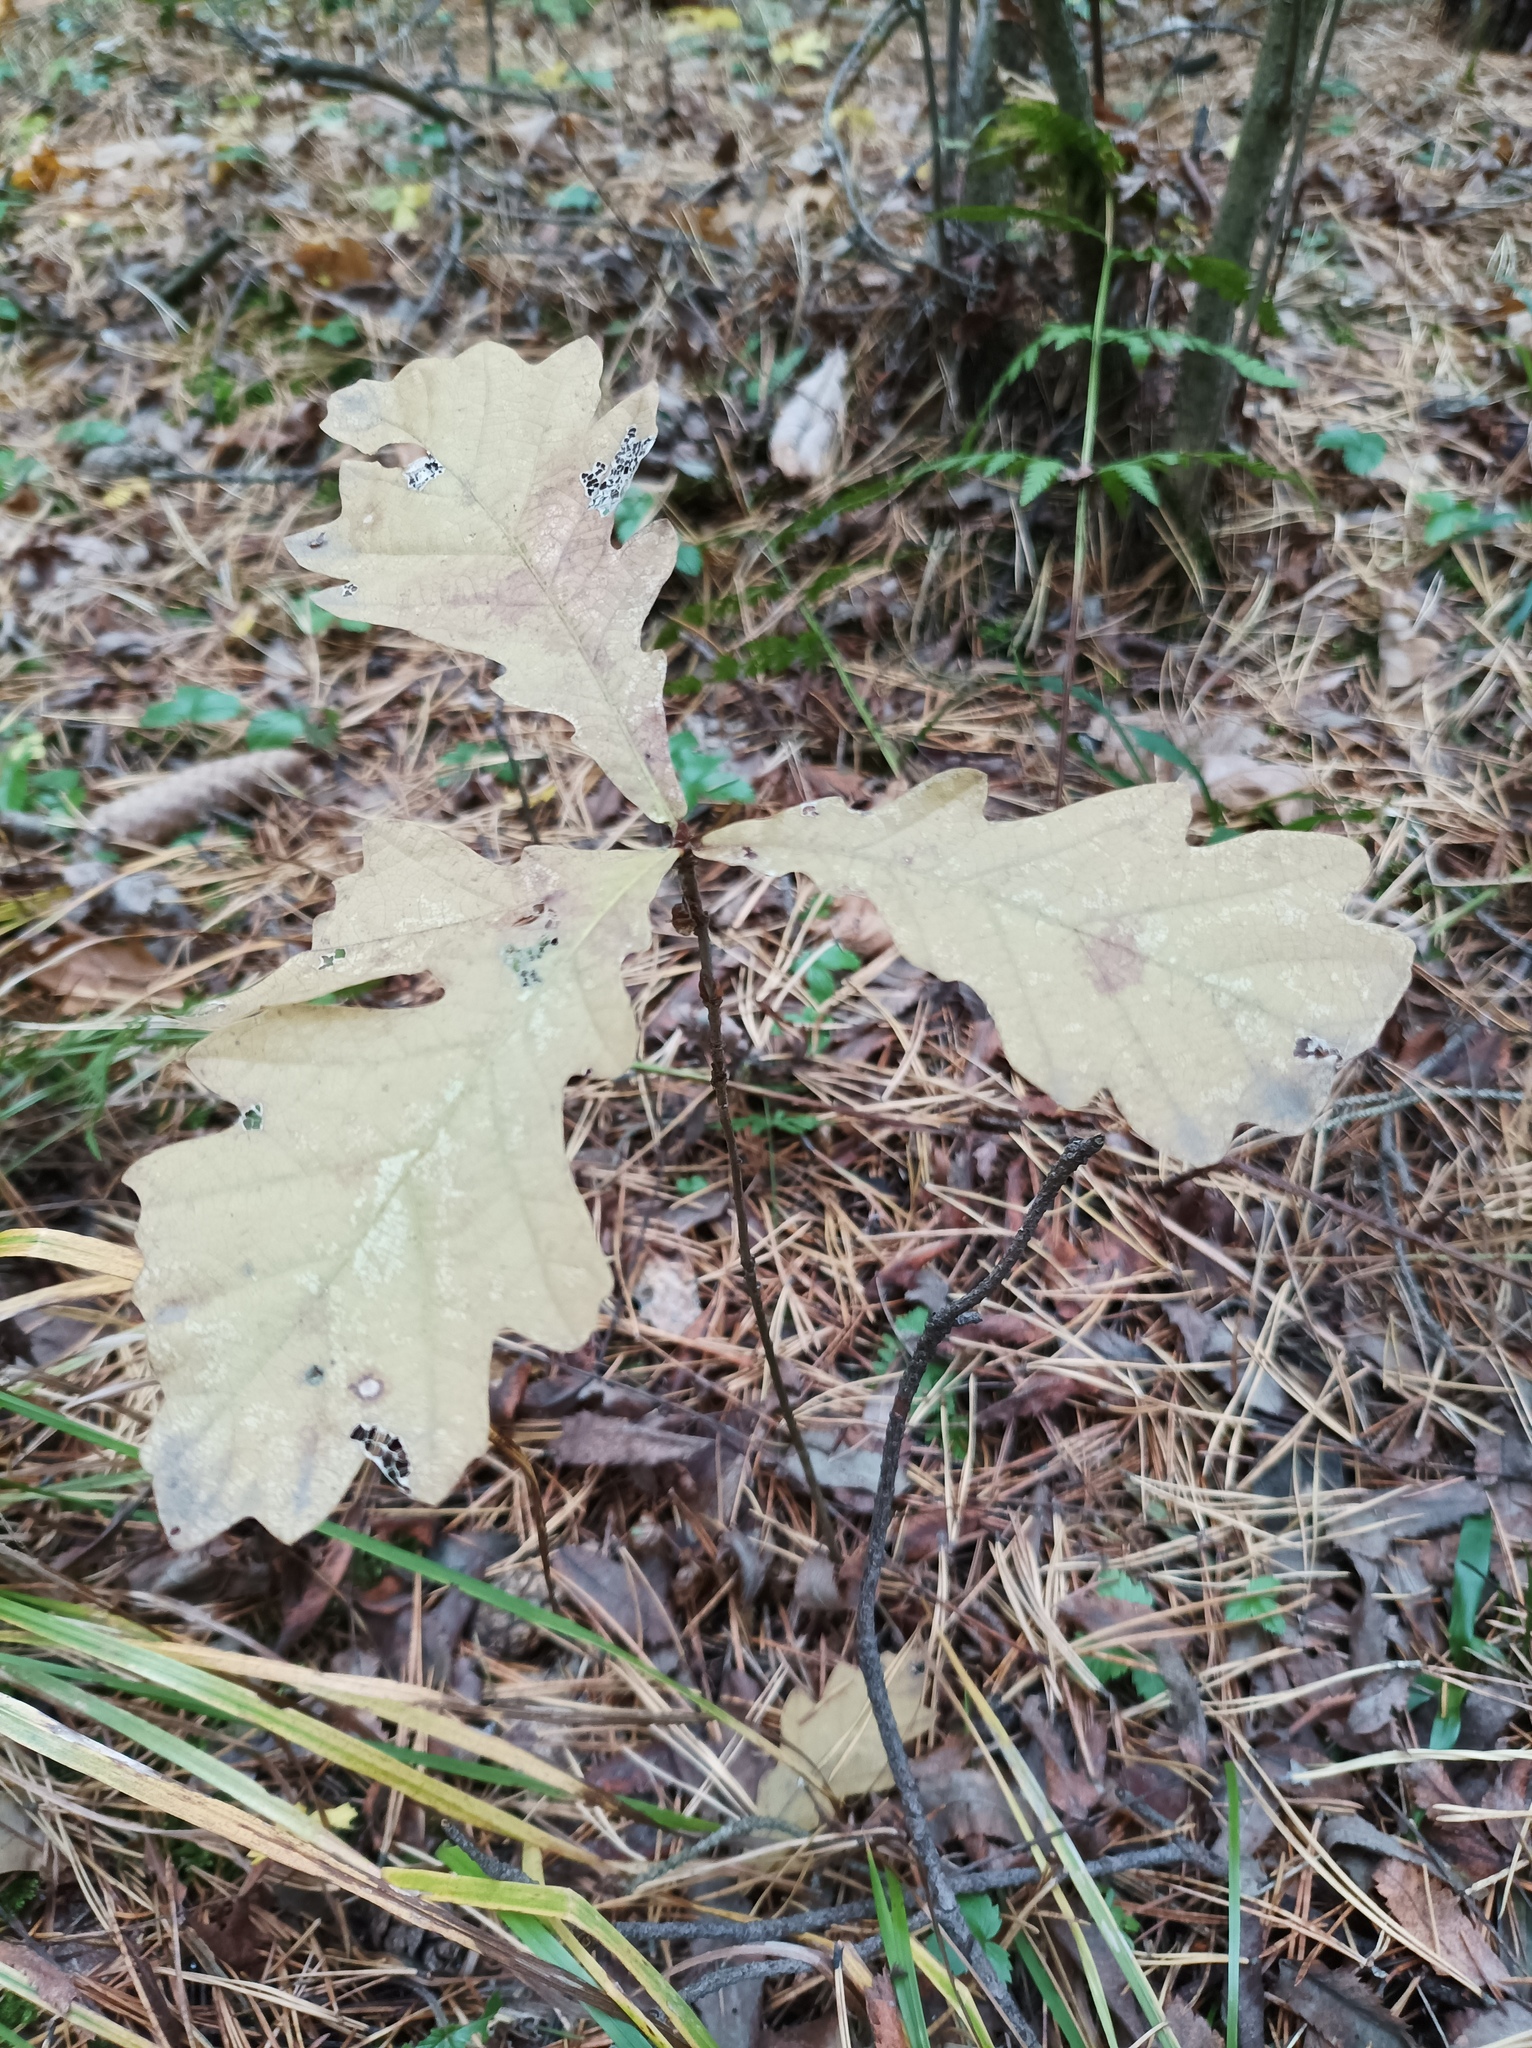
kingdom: Plantae
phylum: Tracheophyta
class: Magnoliopsida
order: Fagales
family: Fagaceae
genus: Quercus
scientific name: Quercus robur
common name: Pedunculate oak
